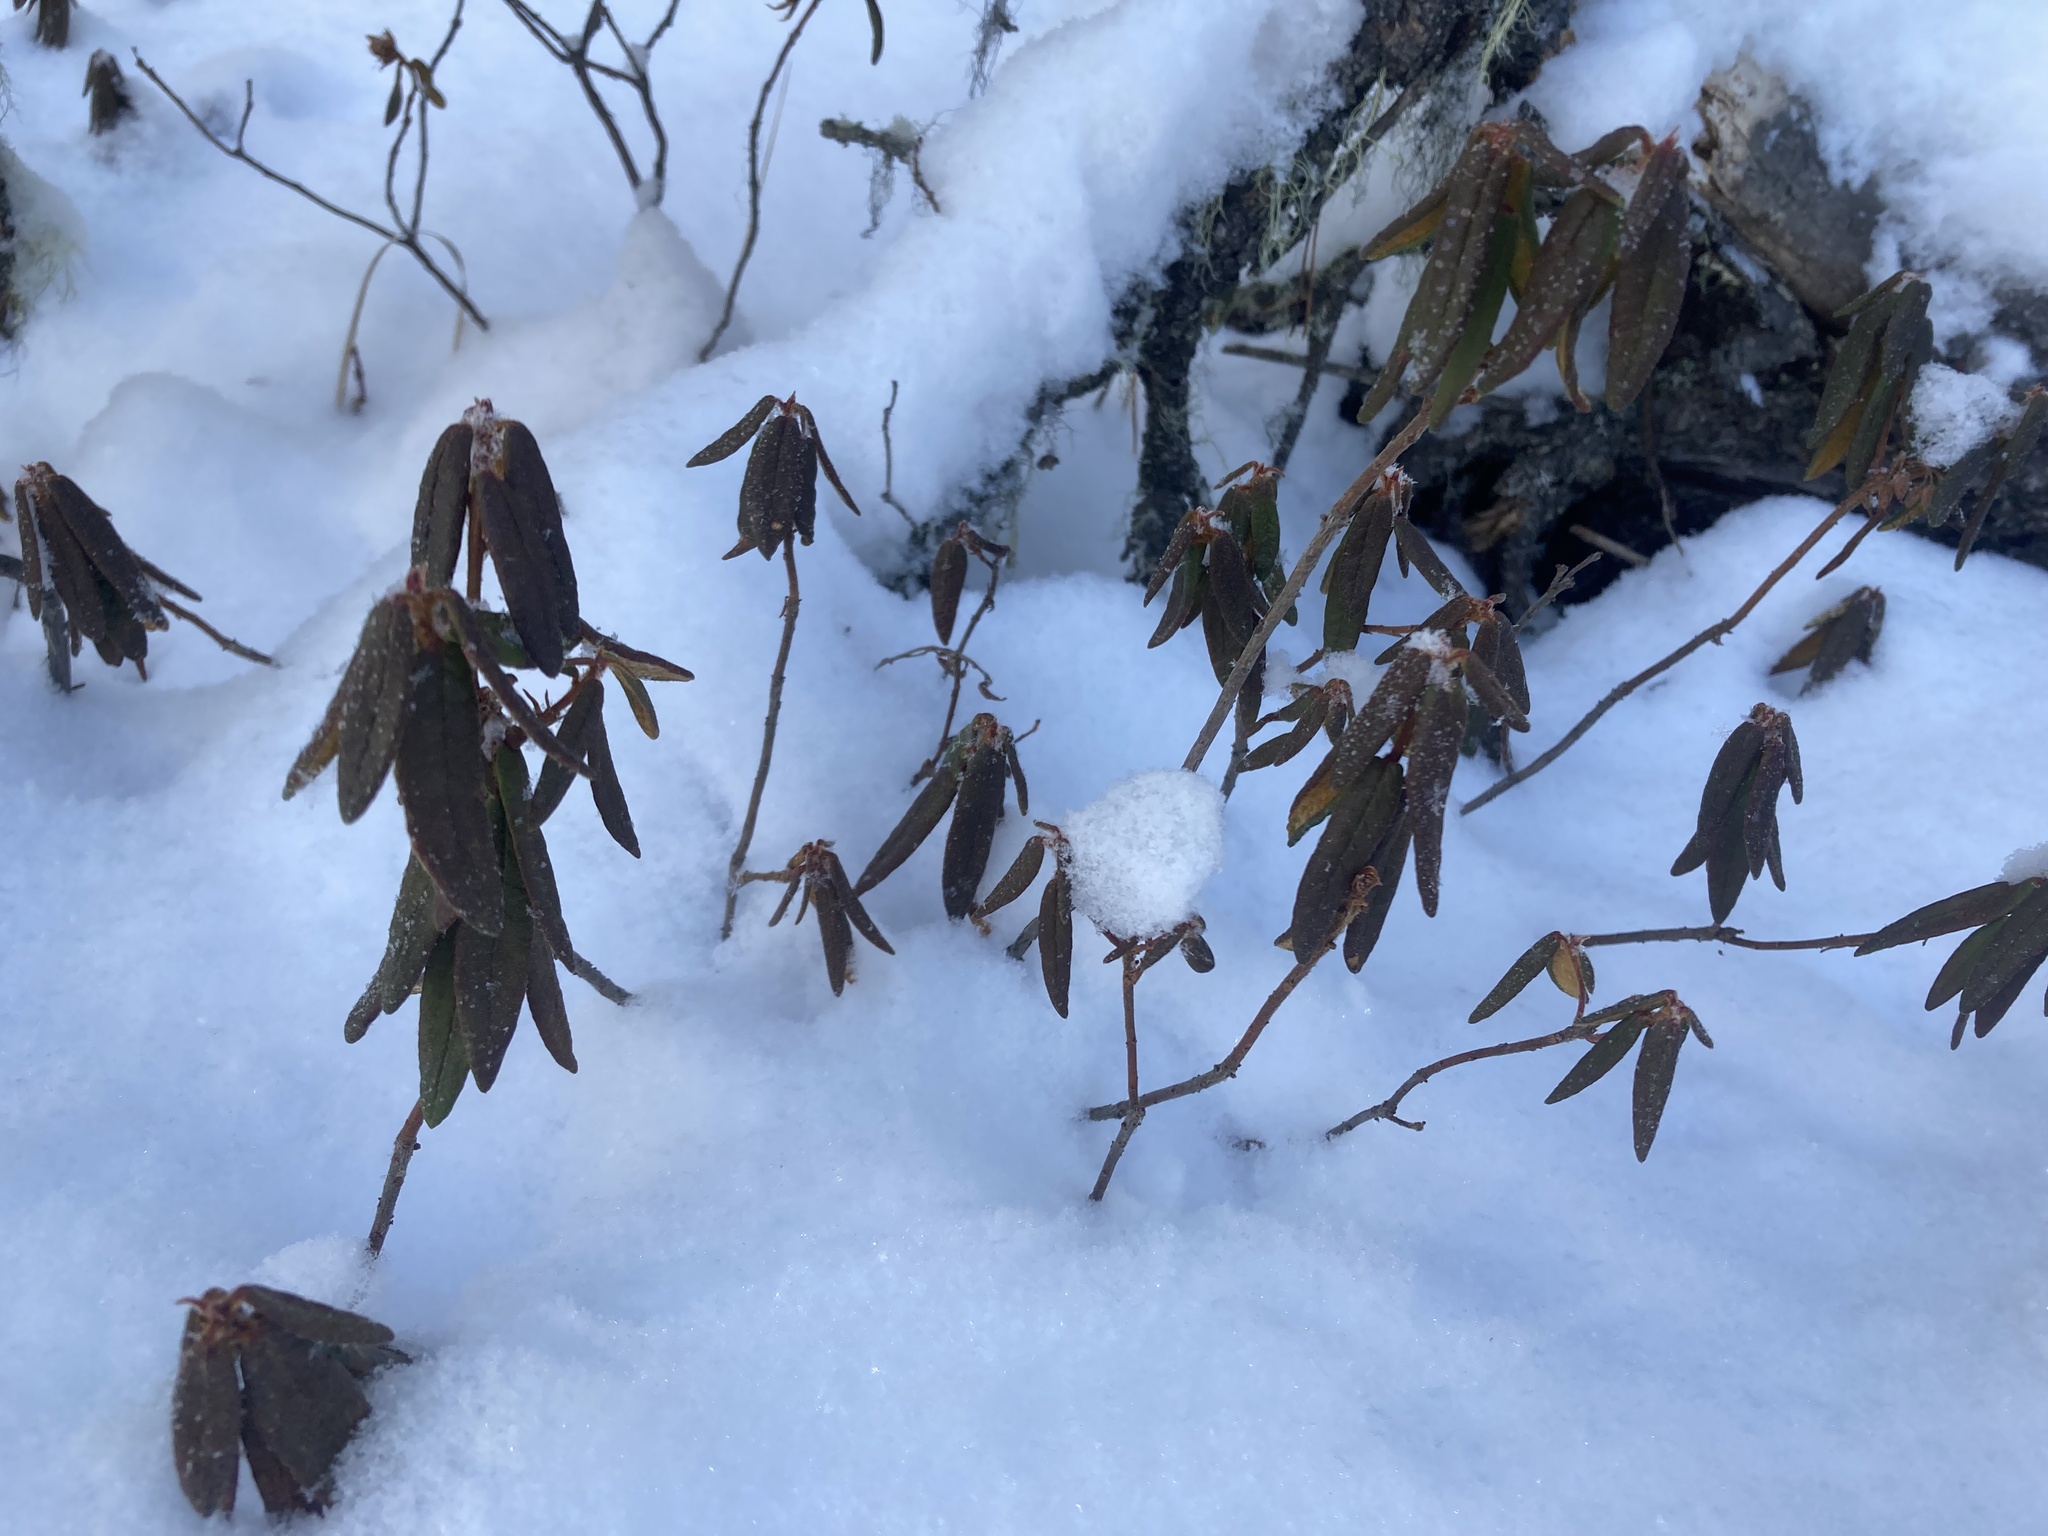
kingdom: Plantae
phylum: Tracheophyta
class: Magnoliopsida
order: Ericales
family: Ericaceae
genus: Rhododendron
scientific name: Rhododendron groenlandicum
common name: Bog labrador tea
